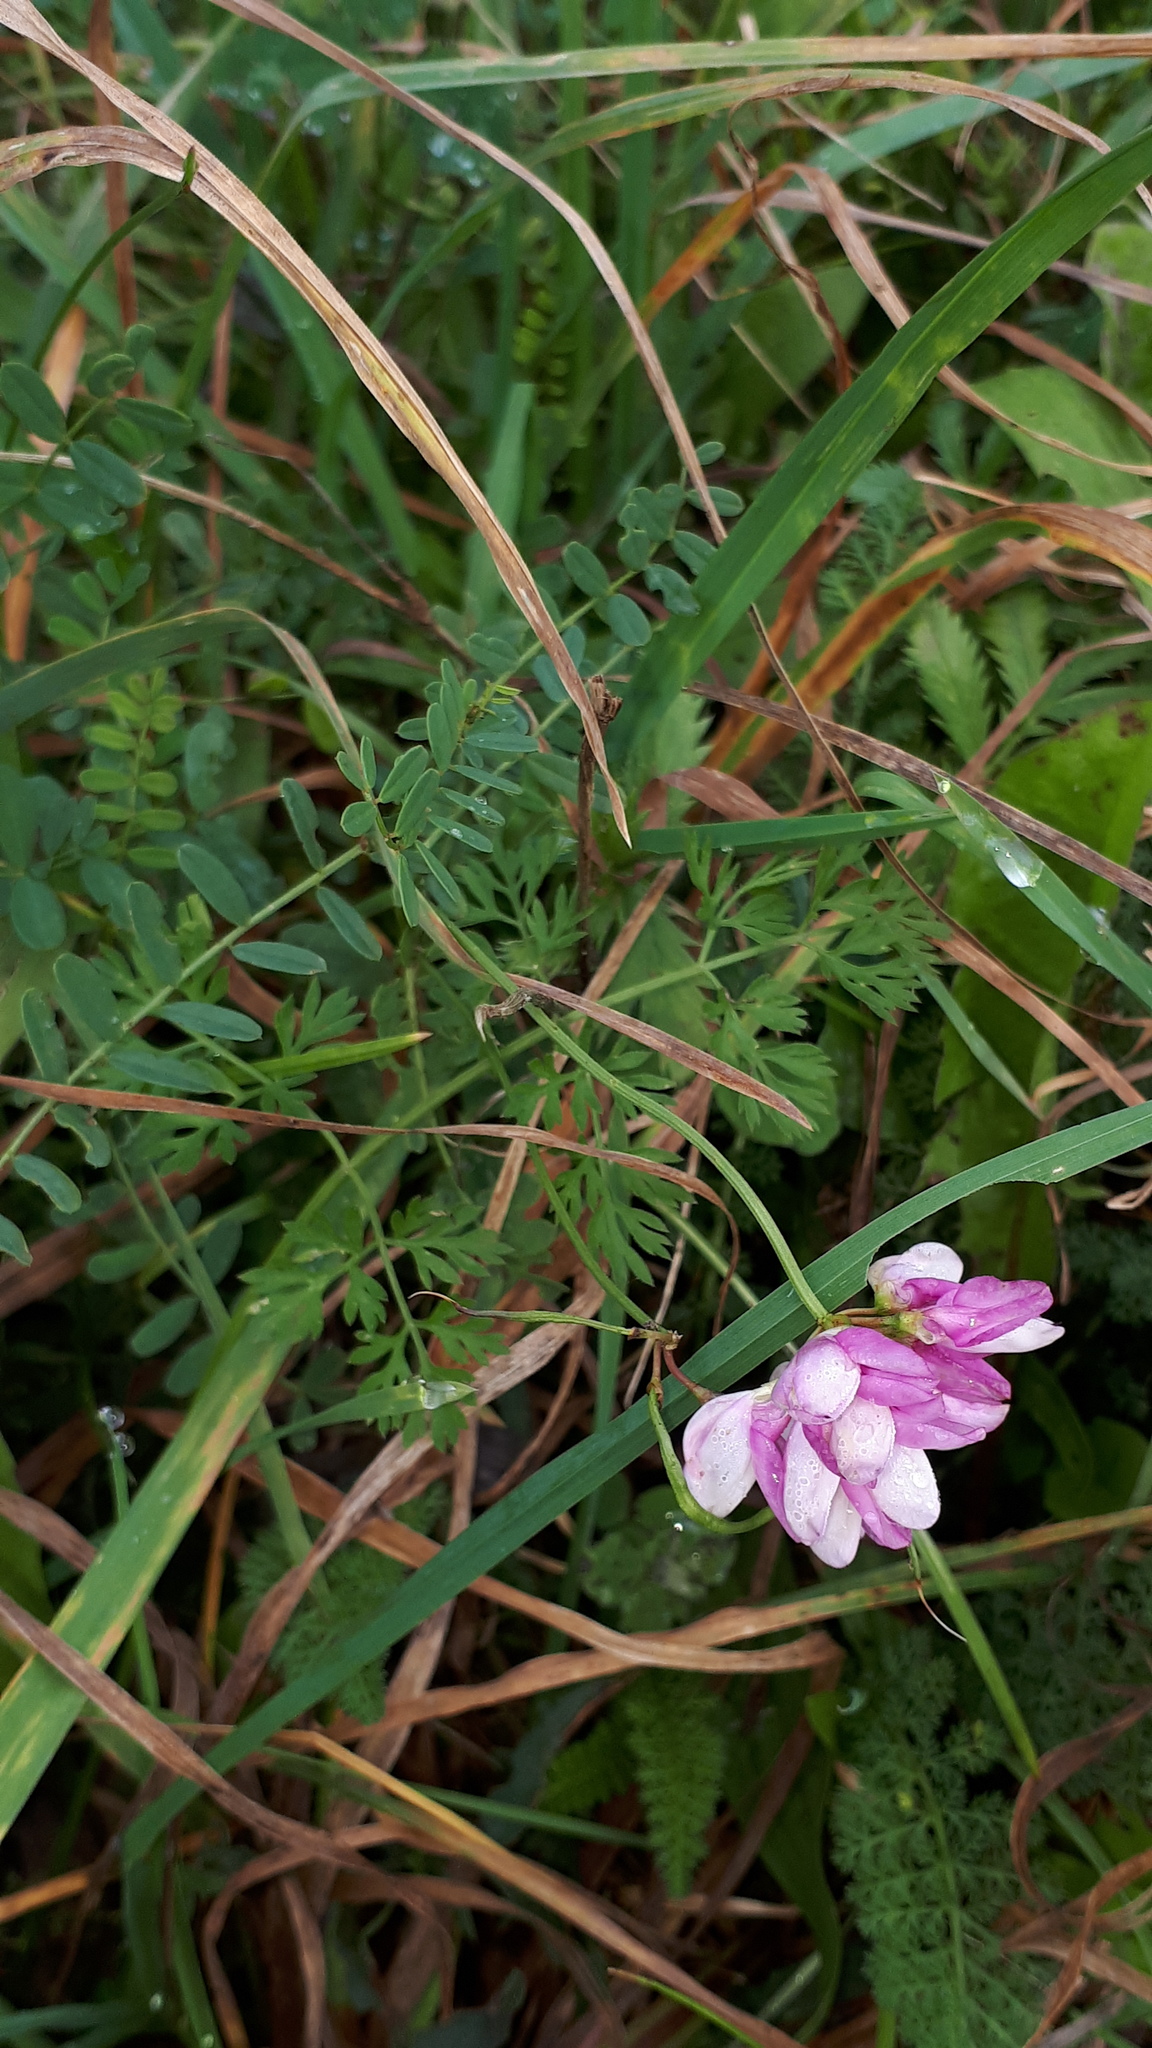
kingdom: Plantae
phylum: Tracheophyta
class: Magnoliopsida
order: Fabales
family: Fabaceae
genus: Coronilla
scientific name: Coronilla varia
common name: Crownvetch
